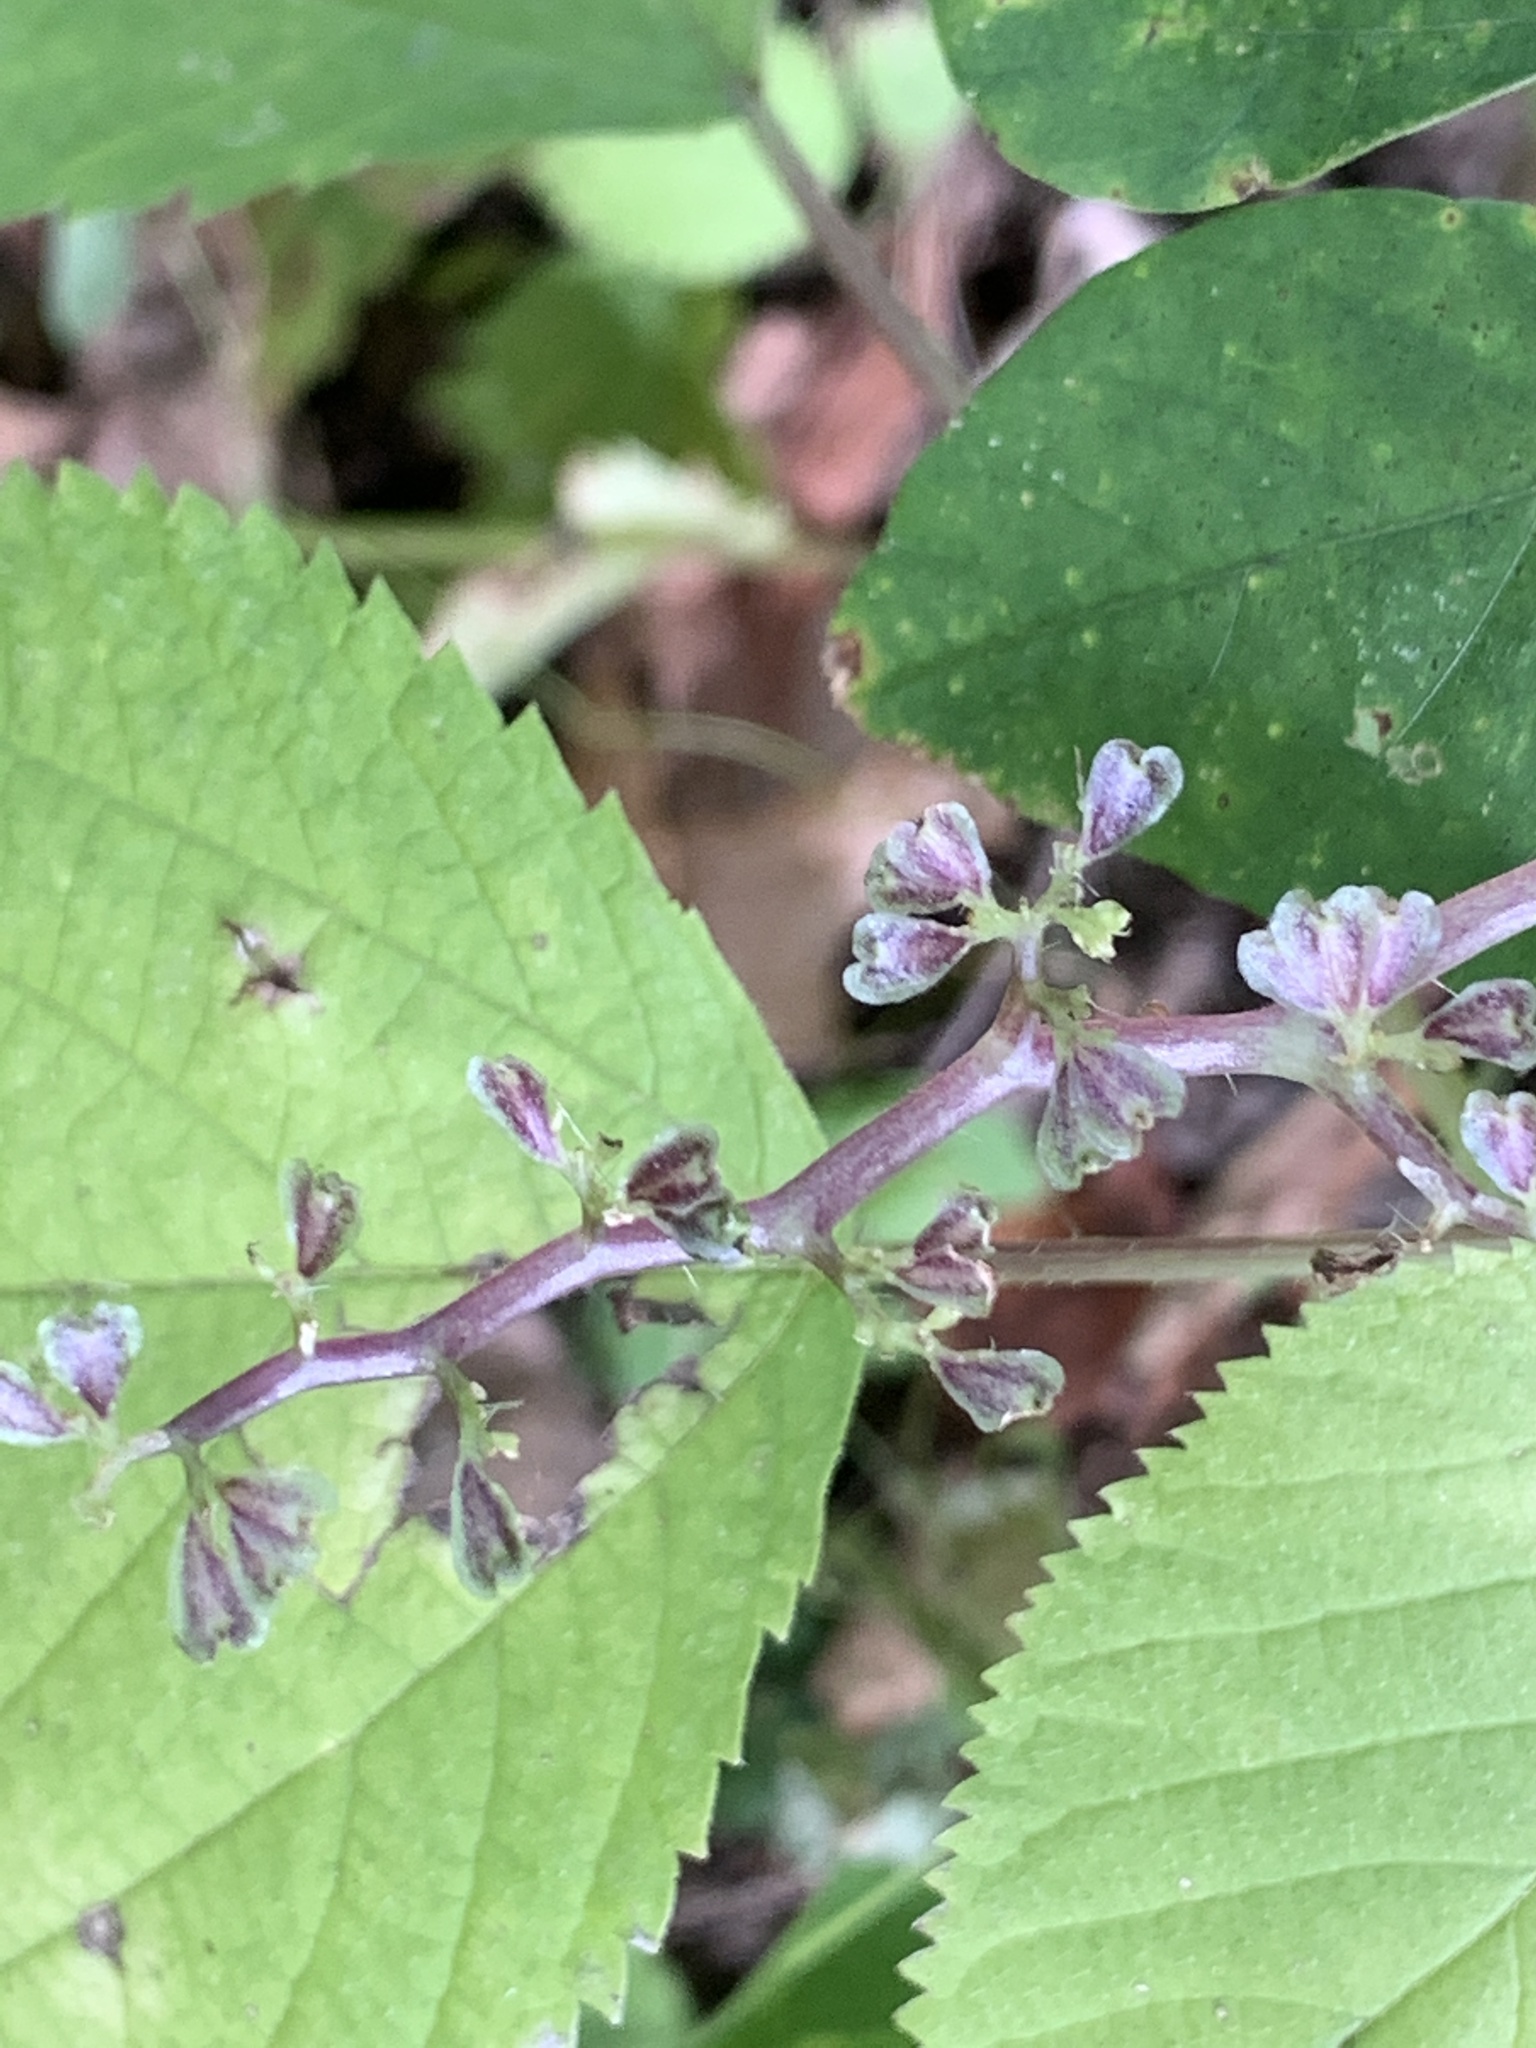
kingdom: Plantae
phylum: Tracheophyta
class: Magnoliopsida
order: Rosales
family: Urticaceae
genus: Laportea
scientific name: Laportea canadensis
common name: Canada nettle
